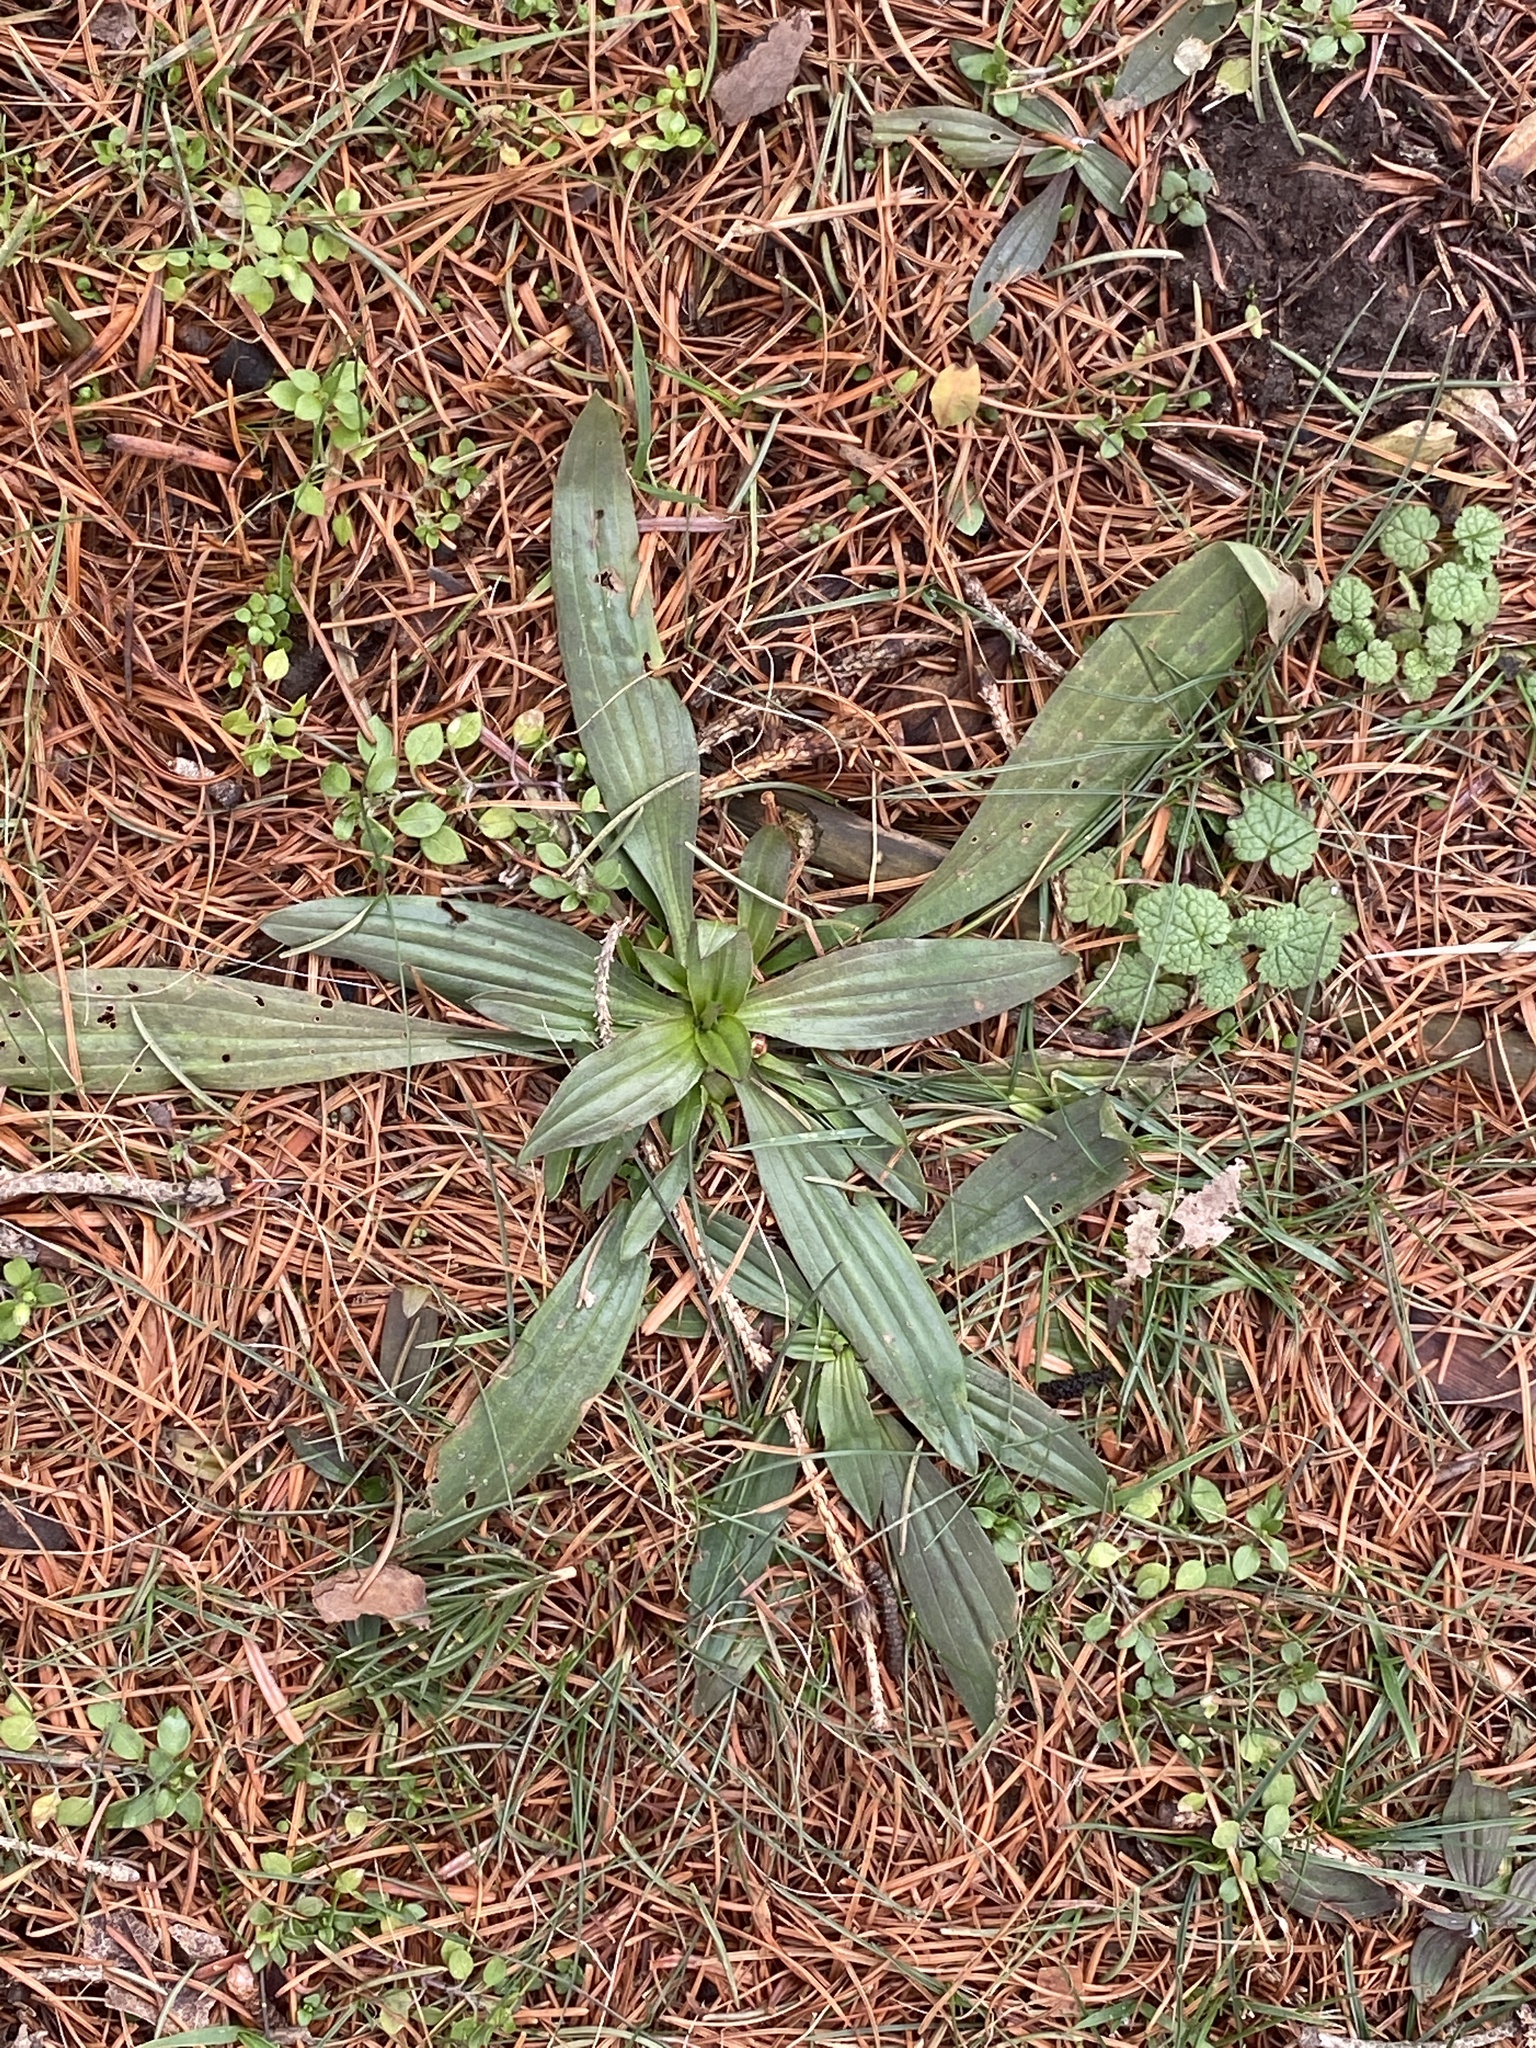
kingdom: Plantae
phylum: Tracheophyta
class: Magnoliopsida
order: Lamiales
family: Plantaginaceae
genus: Plantago
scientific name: Plantago lanceolata
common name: Ribwort plantain
